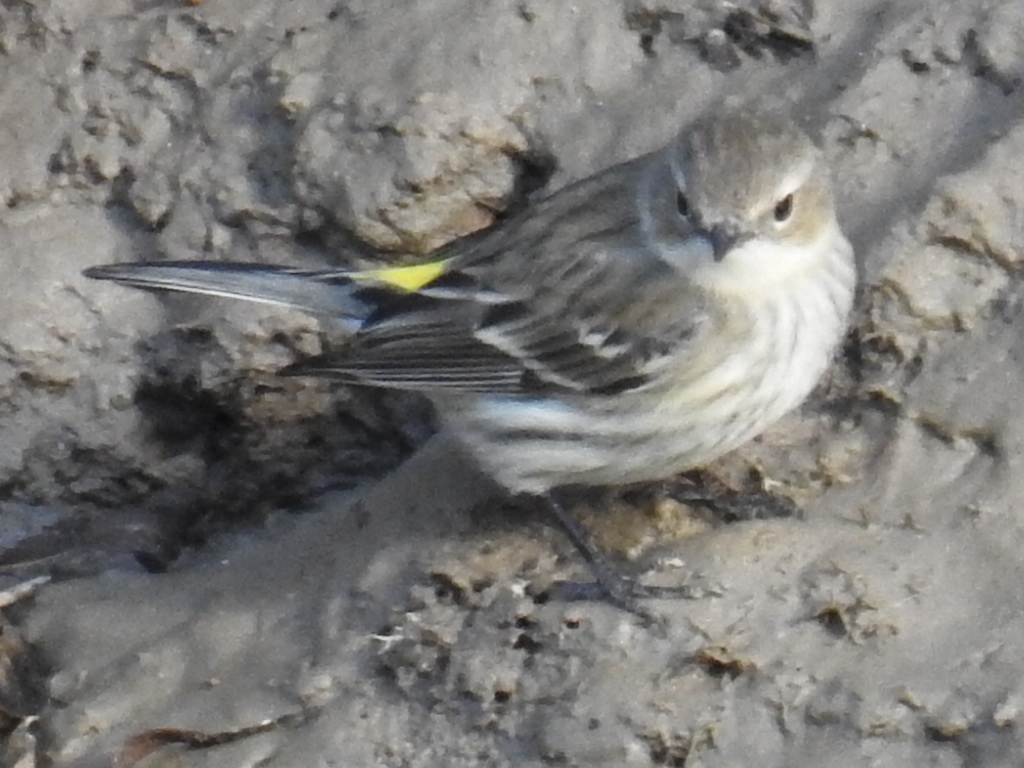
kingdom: Animalia
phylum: Chordata
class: Aves
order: Passeriformes
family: Parulidae
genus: Setophaga
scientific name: Setophaga coronata
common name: Myrtle warbler
